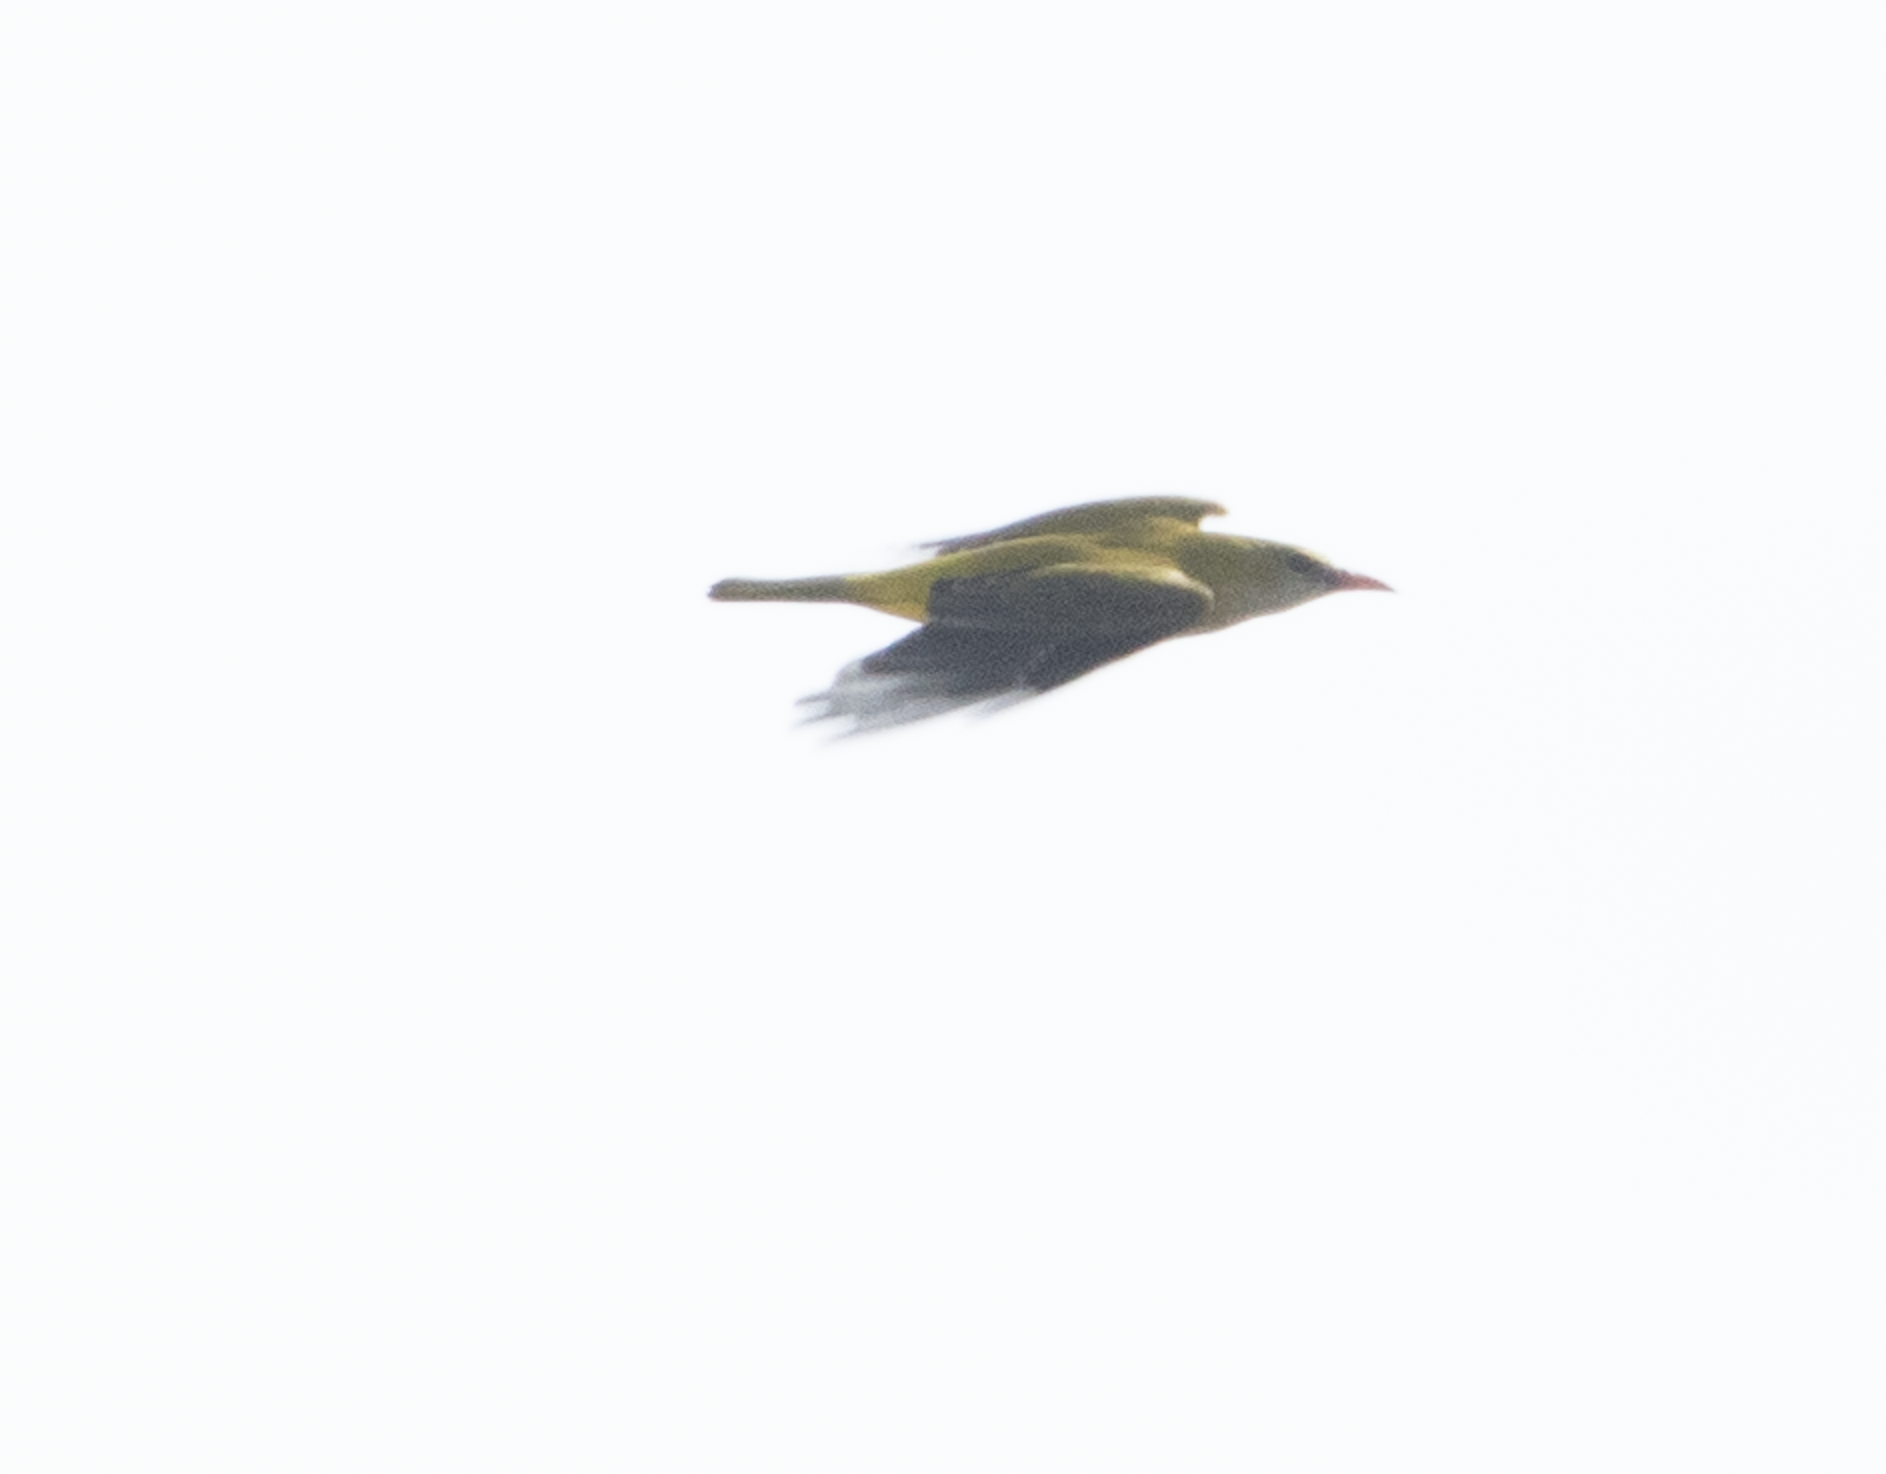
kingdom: Animalia
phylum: Chordata
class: Aves
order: Passeriformes
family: Oriolidae
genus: Oriolus
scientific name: Oriolus oriolus
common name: Eurasian golden oriole
